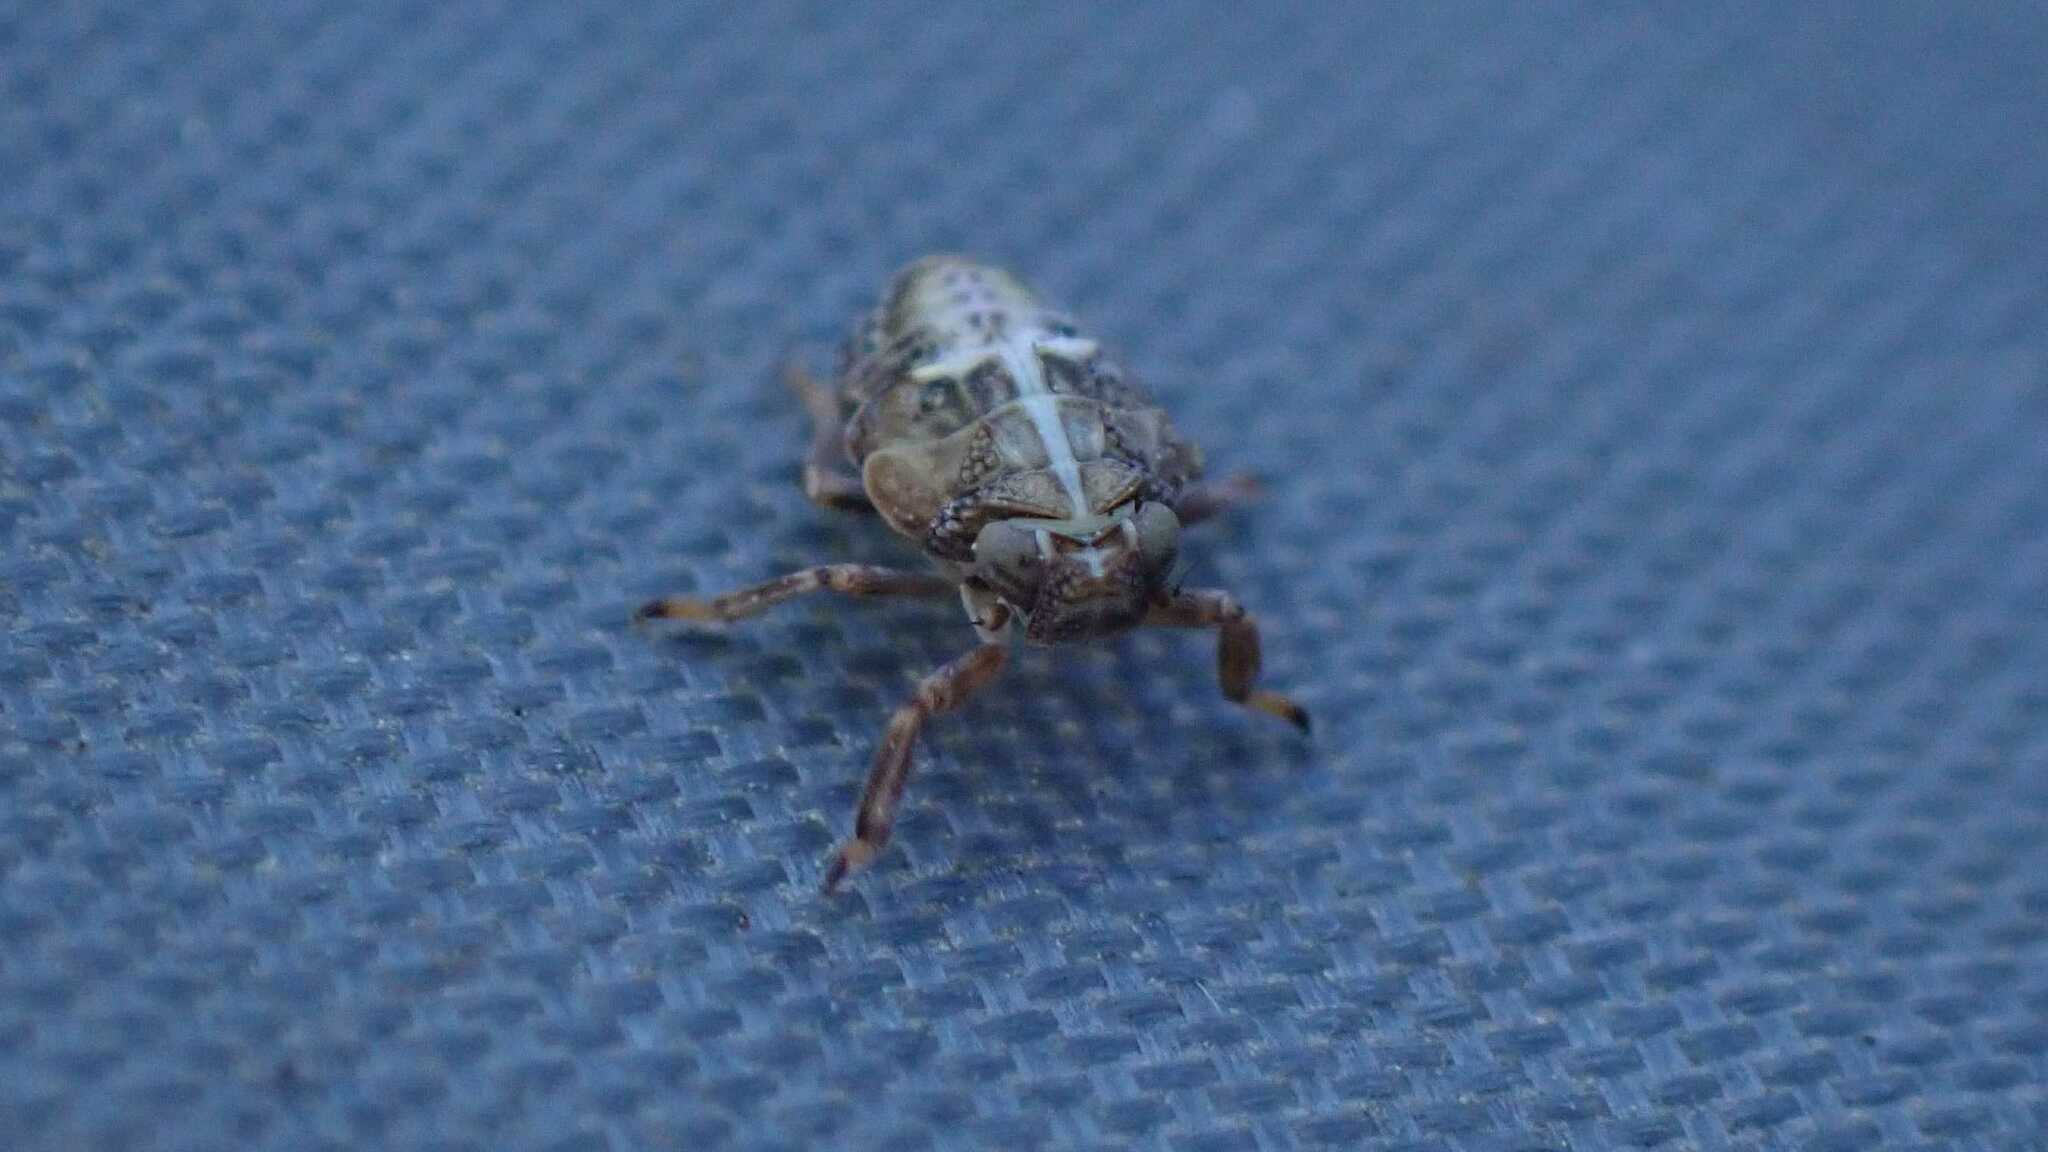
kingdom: Animalia
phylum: Arthropoda
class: Insecta
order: Hemiptera
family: Issidae
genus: Issus
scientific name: Issus coleoptratus
